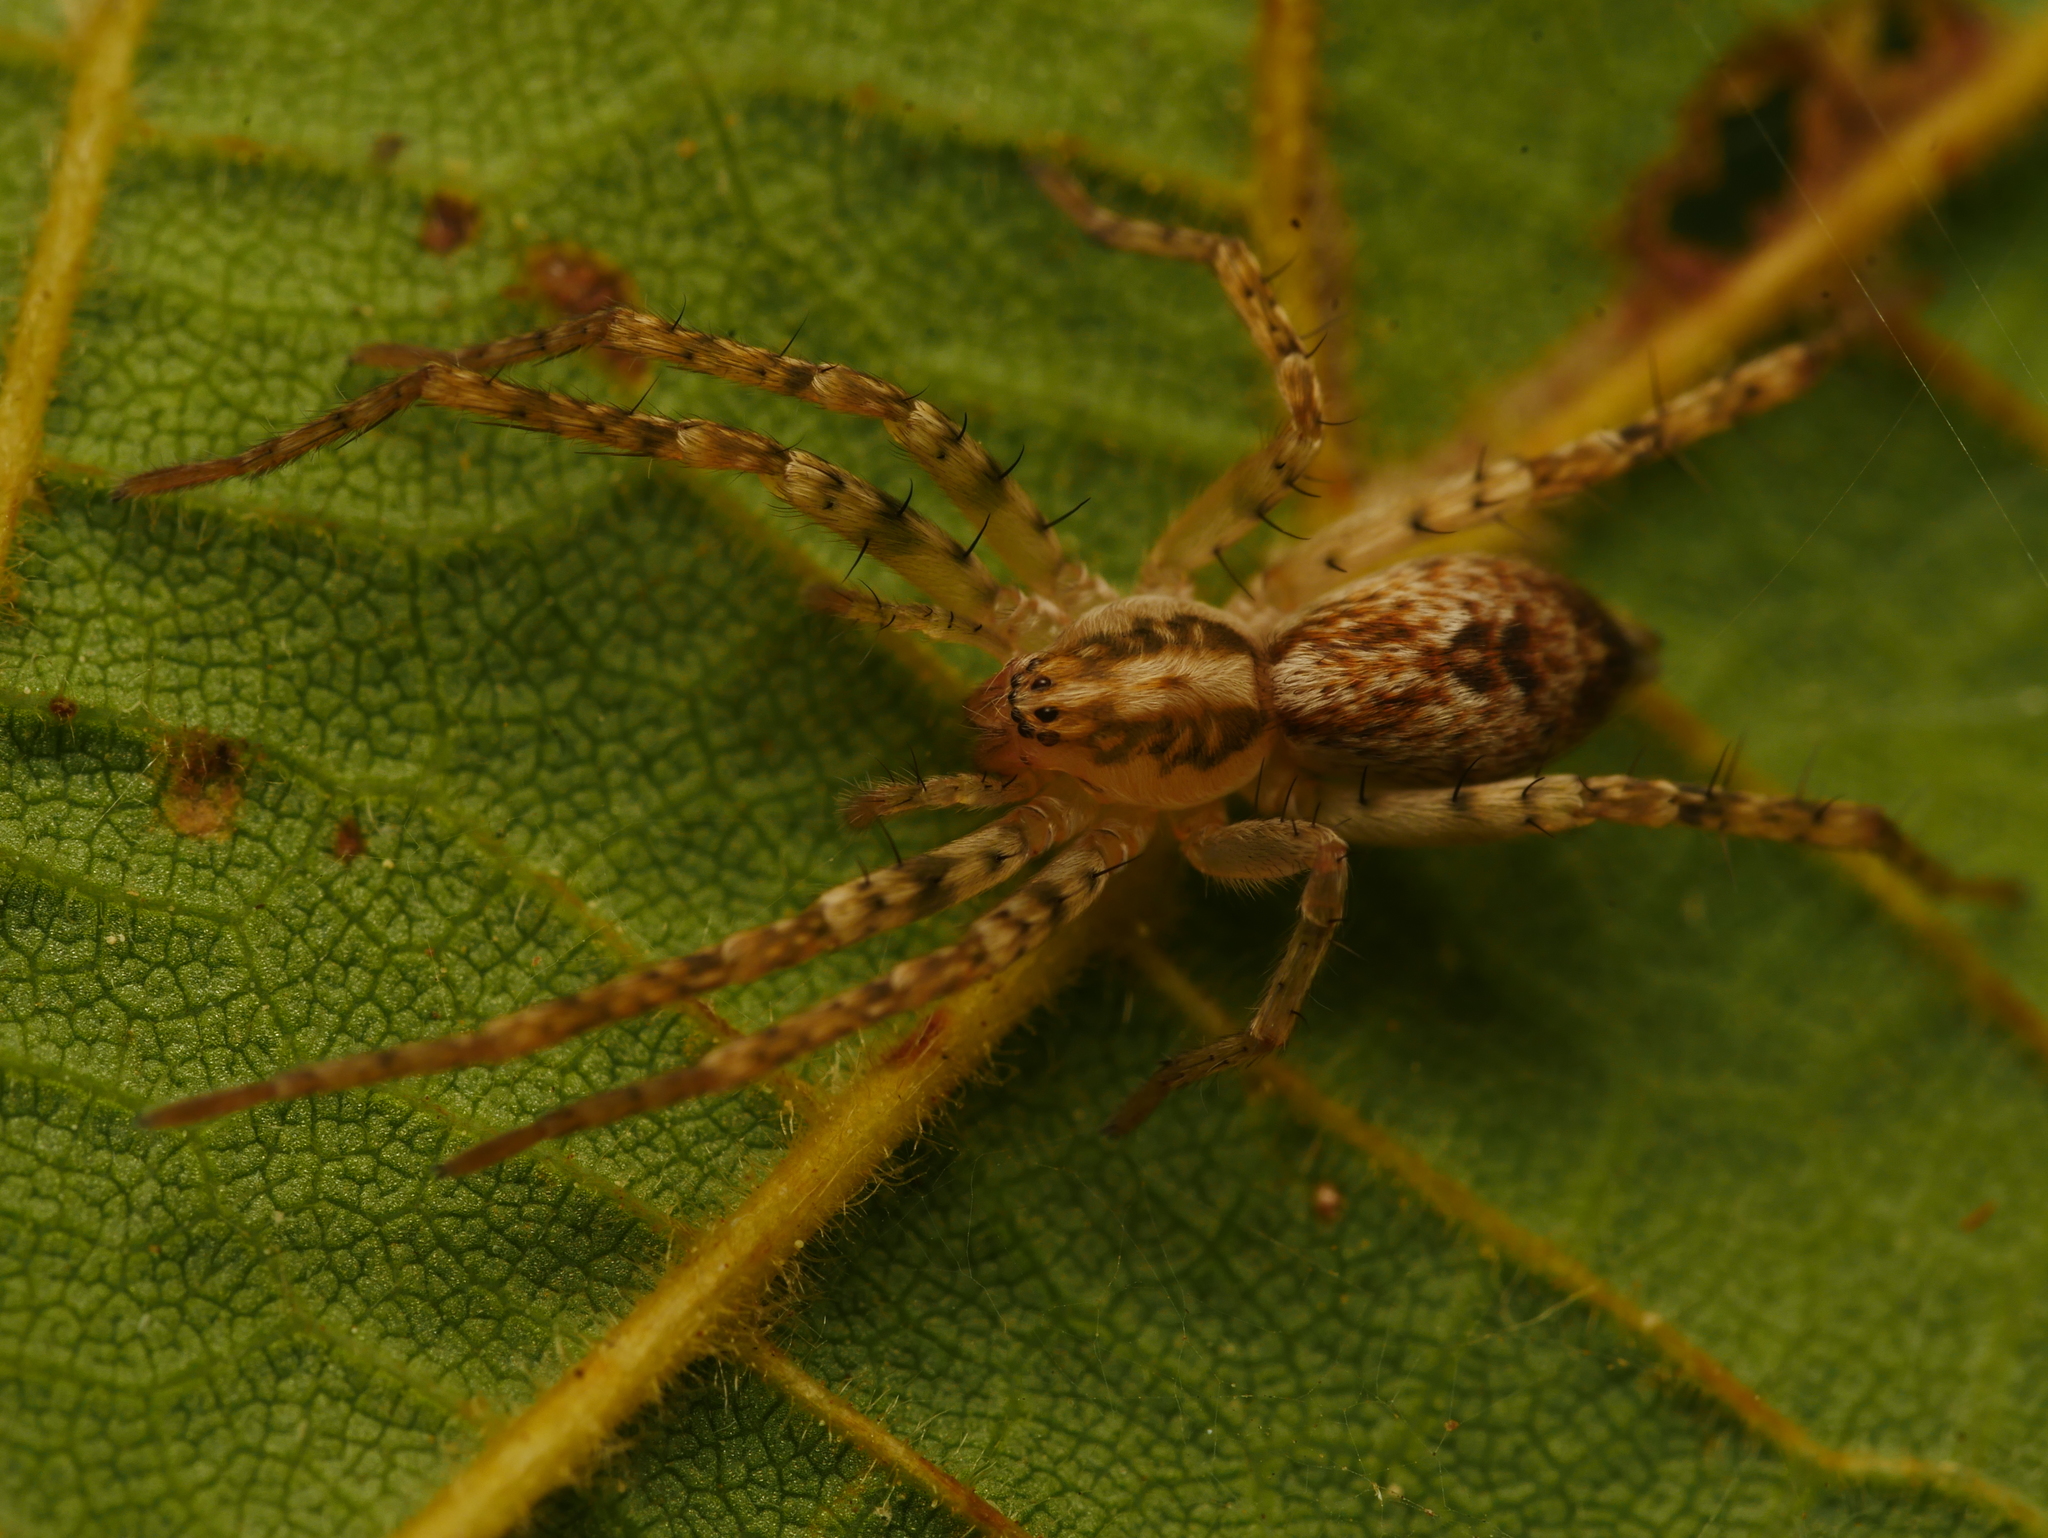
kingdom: Animalia
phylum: Arthropoda
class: Arachnida
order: Araneae
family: Anyphaenidae
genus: Anyphaena
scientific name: Anyphaena accentuata
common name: Buzzing spider
